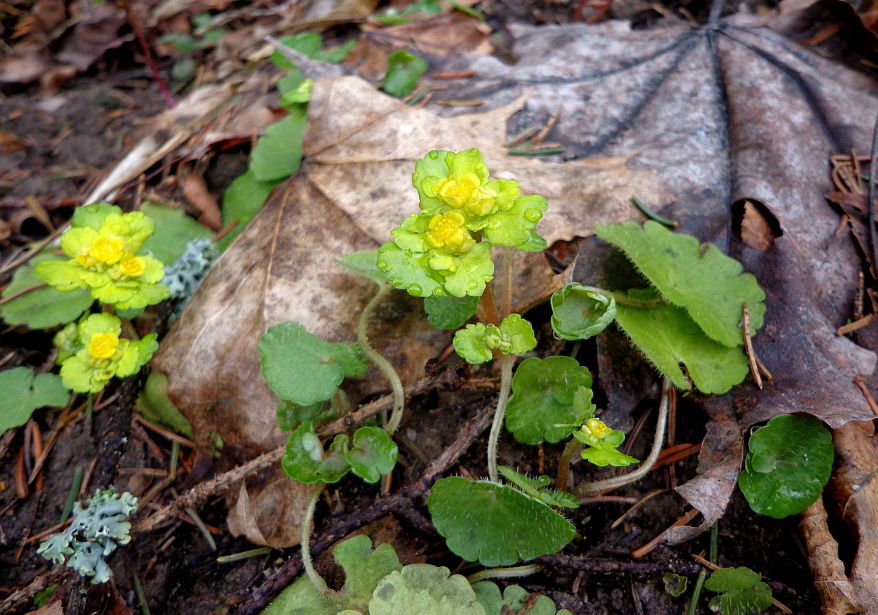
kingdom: Plantae
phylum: Tracheophyta
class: Magnoliopsida
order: Saxifragales
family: Saxifragaceae
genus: Chrysosplenium
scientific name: Chrysosplenium alternifolium
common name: Alternate-leaved golden-saxifrage
